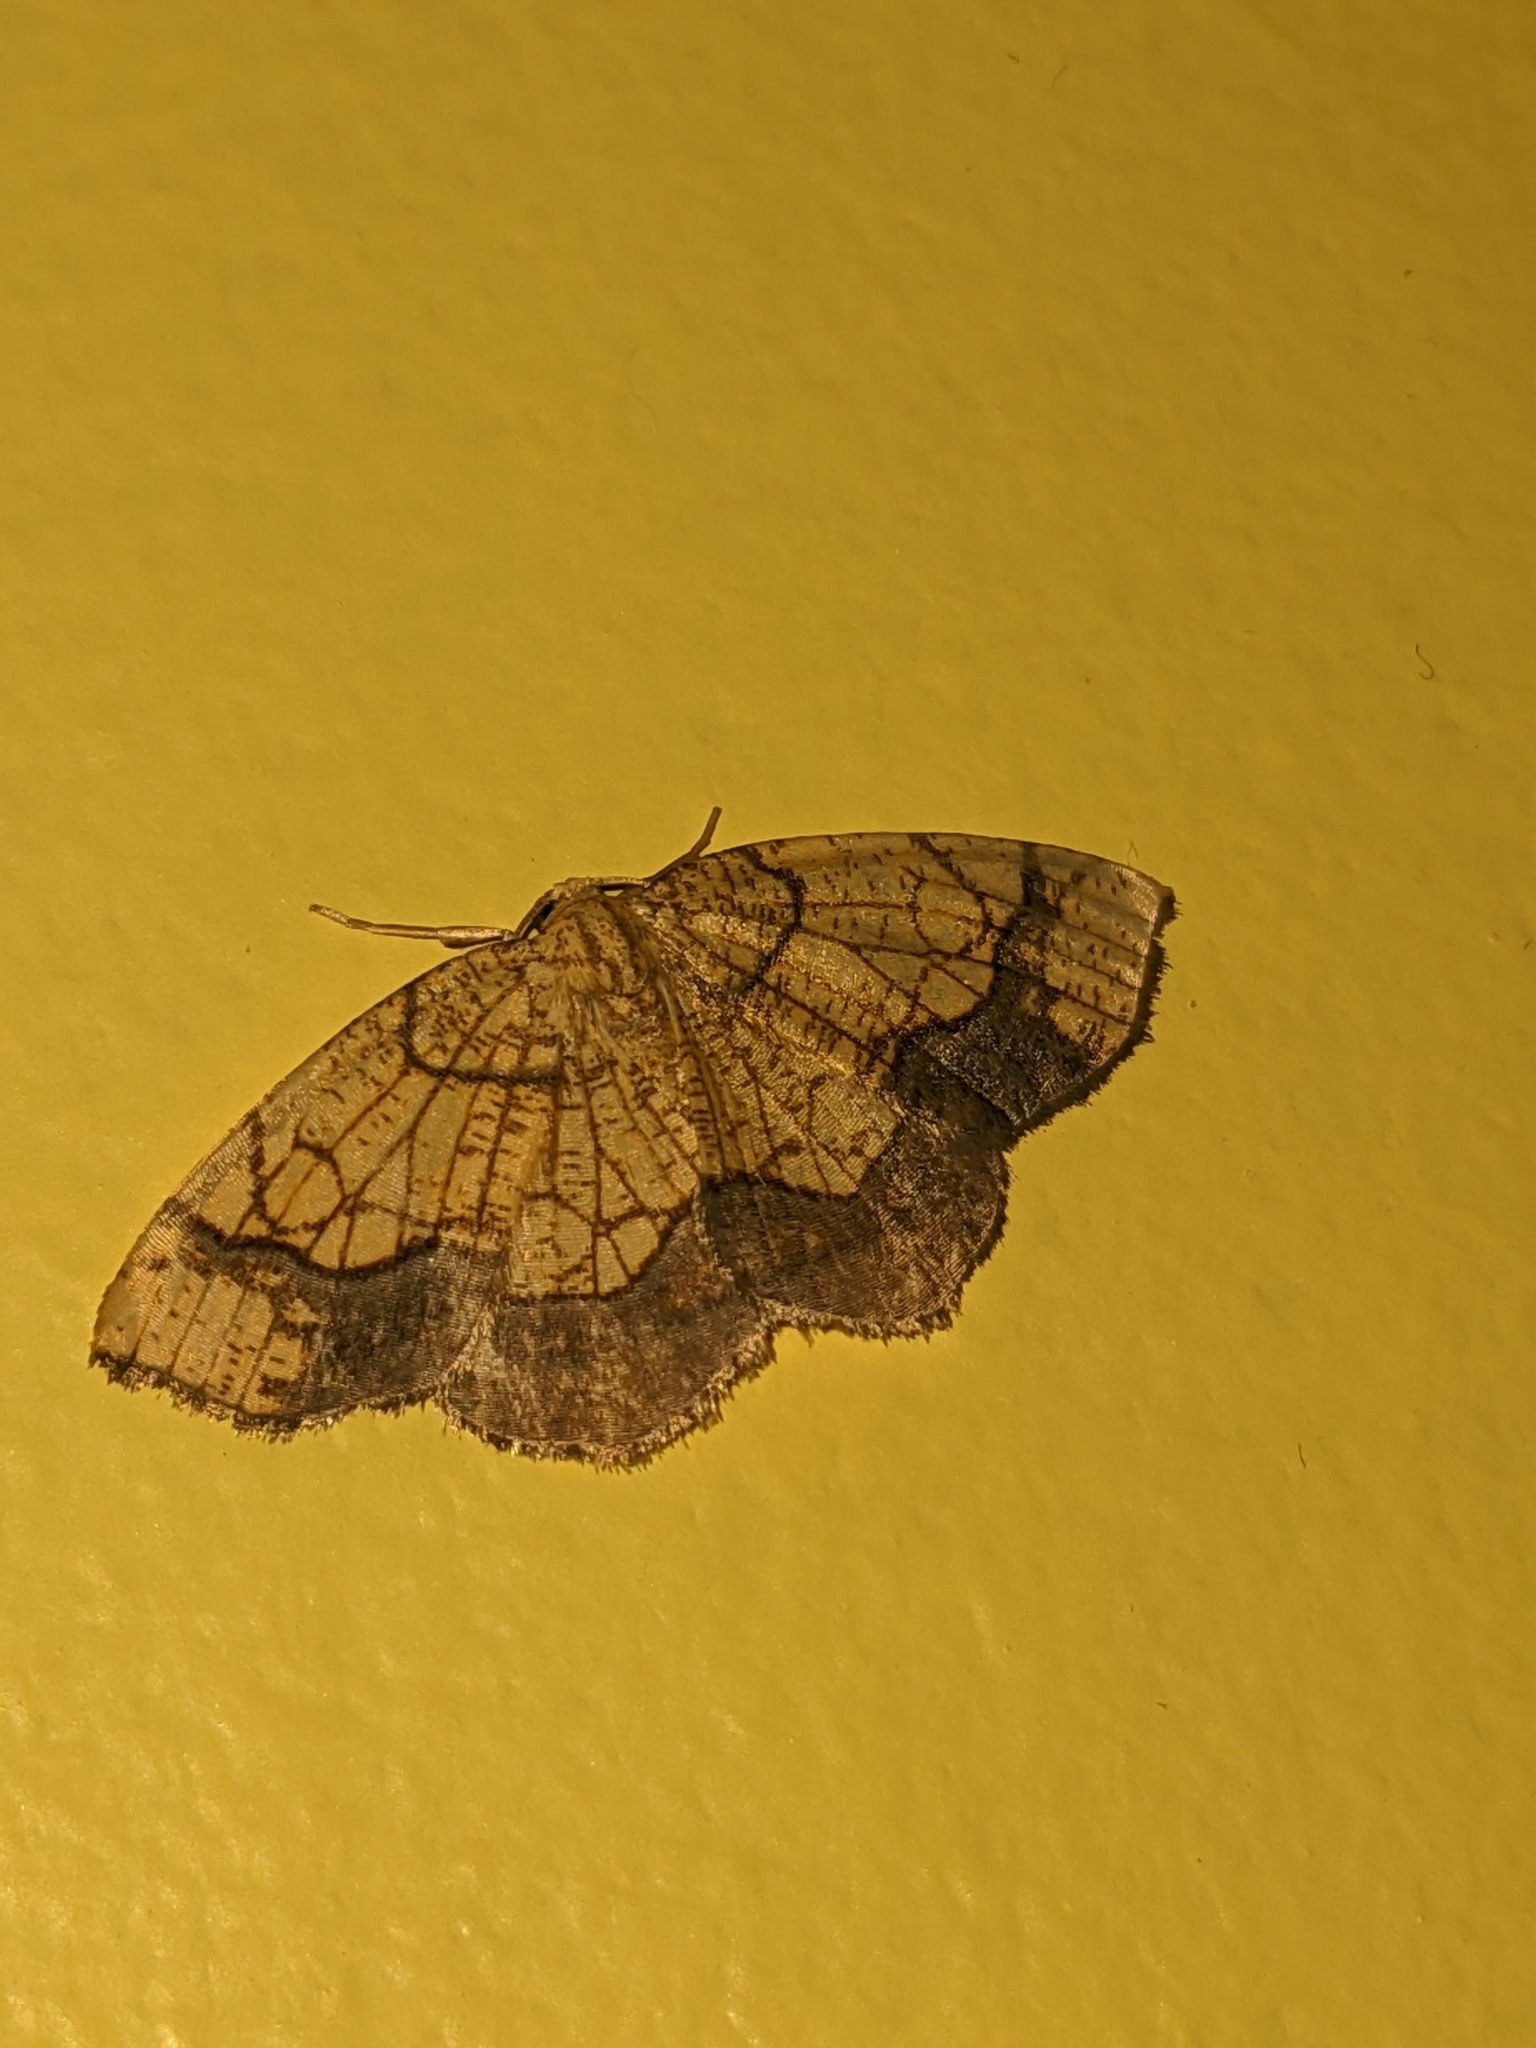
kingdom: Animalia
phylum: Arthropoda
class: Insecta
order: Lepidoptera
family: Geometridae
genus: Nematocampa
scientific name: Nematocampa resistaria
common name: Horned spanworm moth
